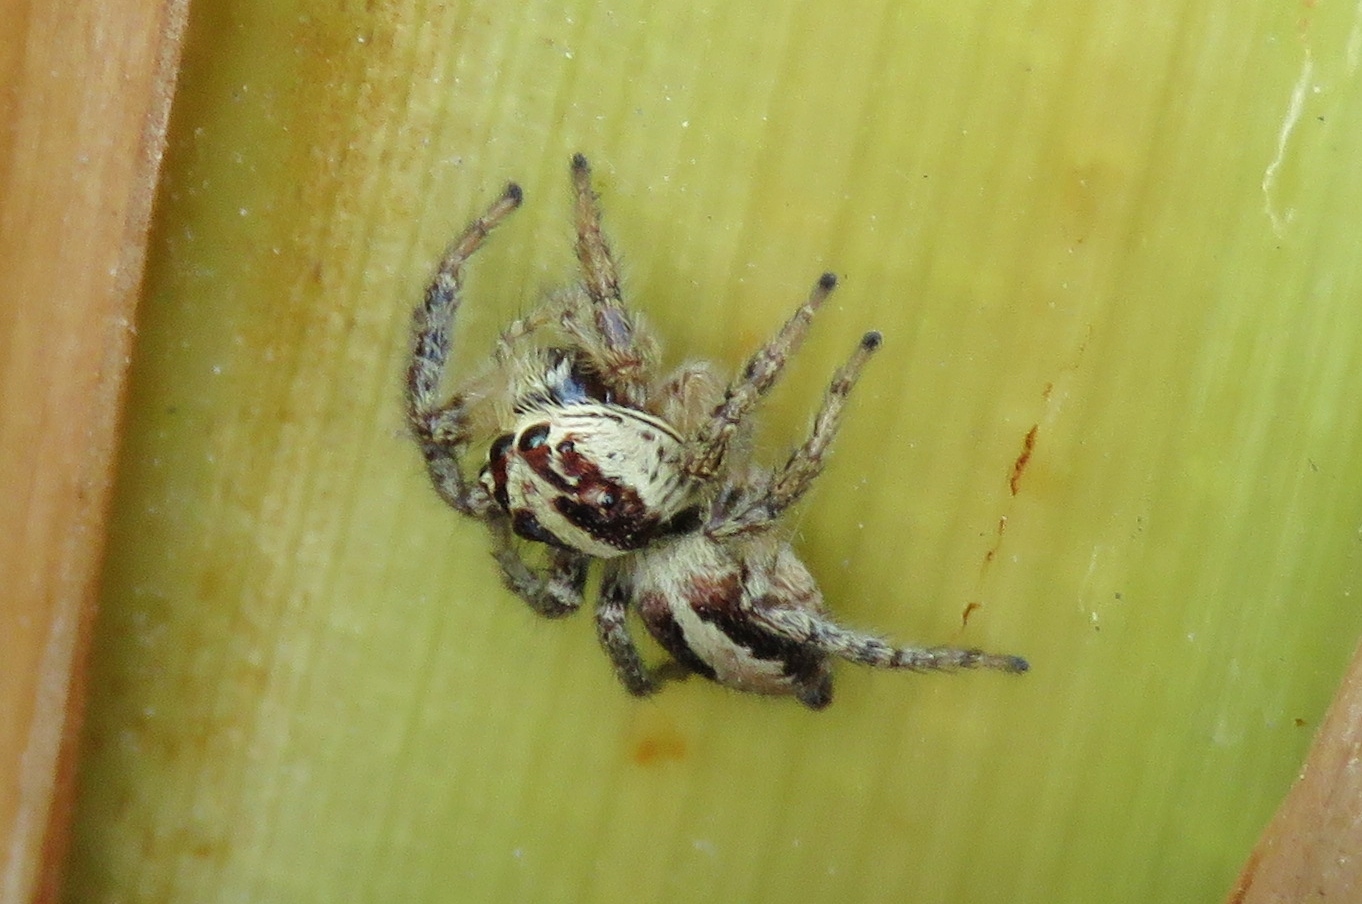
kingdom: Animalia
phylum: Arthropoda
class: Arachnida
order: Araneae
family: Salticidae
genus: Frigga
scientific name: Frigga crocuta
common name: Jumping spiders
